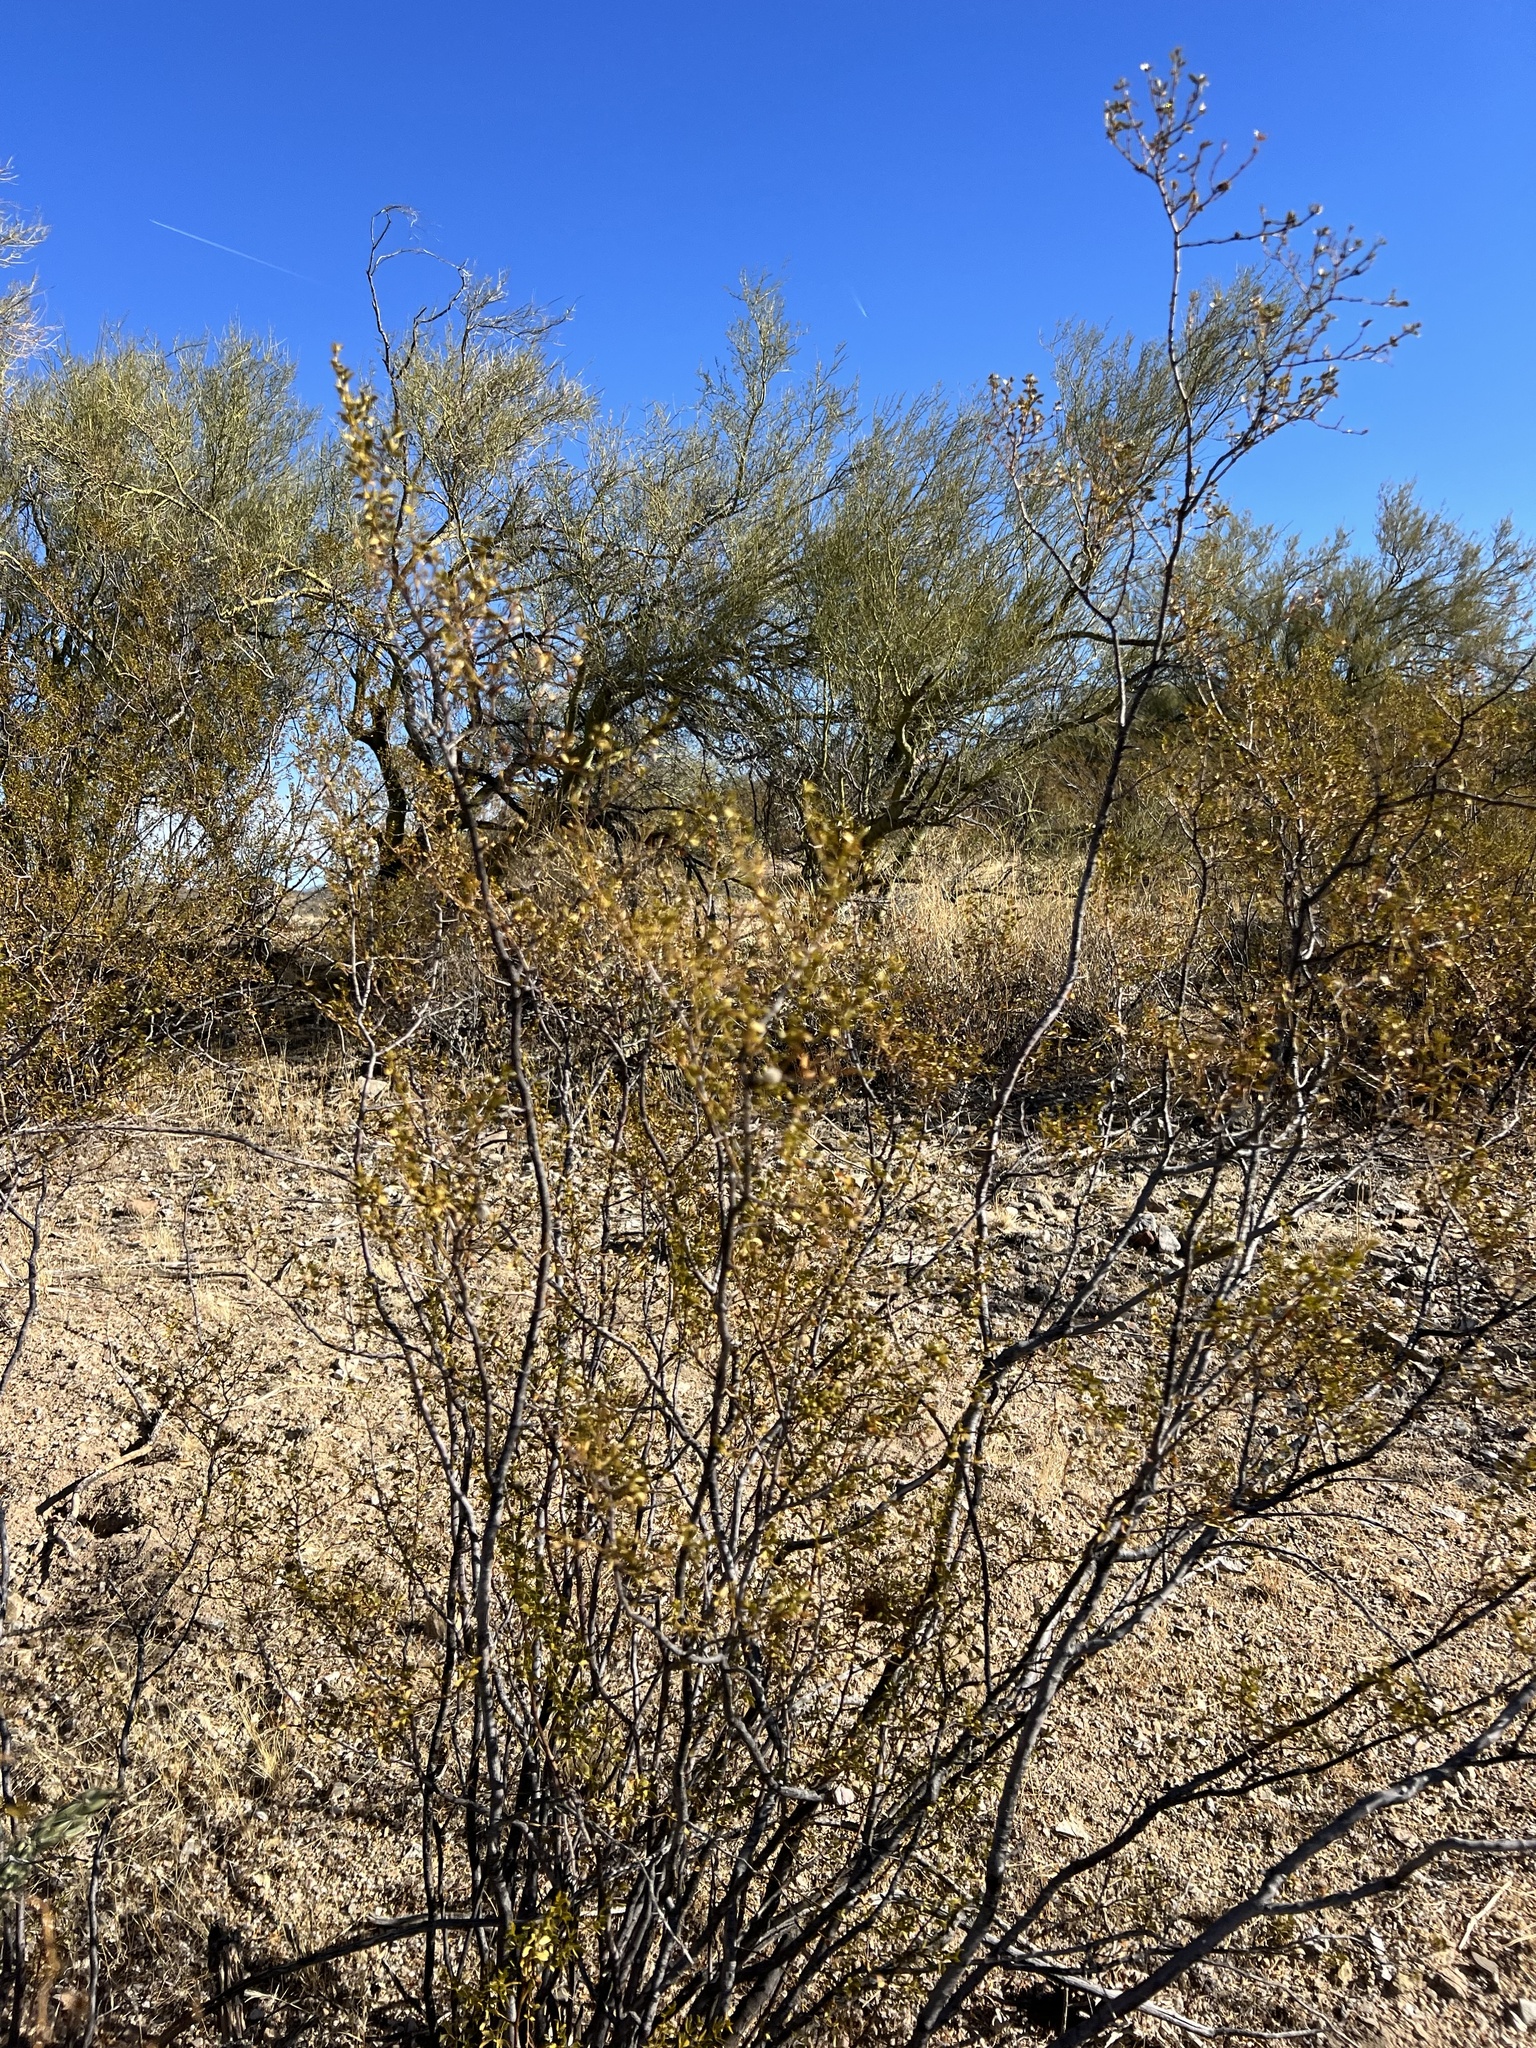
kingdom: Plantae
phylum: Tracheophyta
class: Magnoliopsida
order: Zygophyllales
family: Zygophyllaceae
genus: Larrea
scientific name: Larrea tridentata
